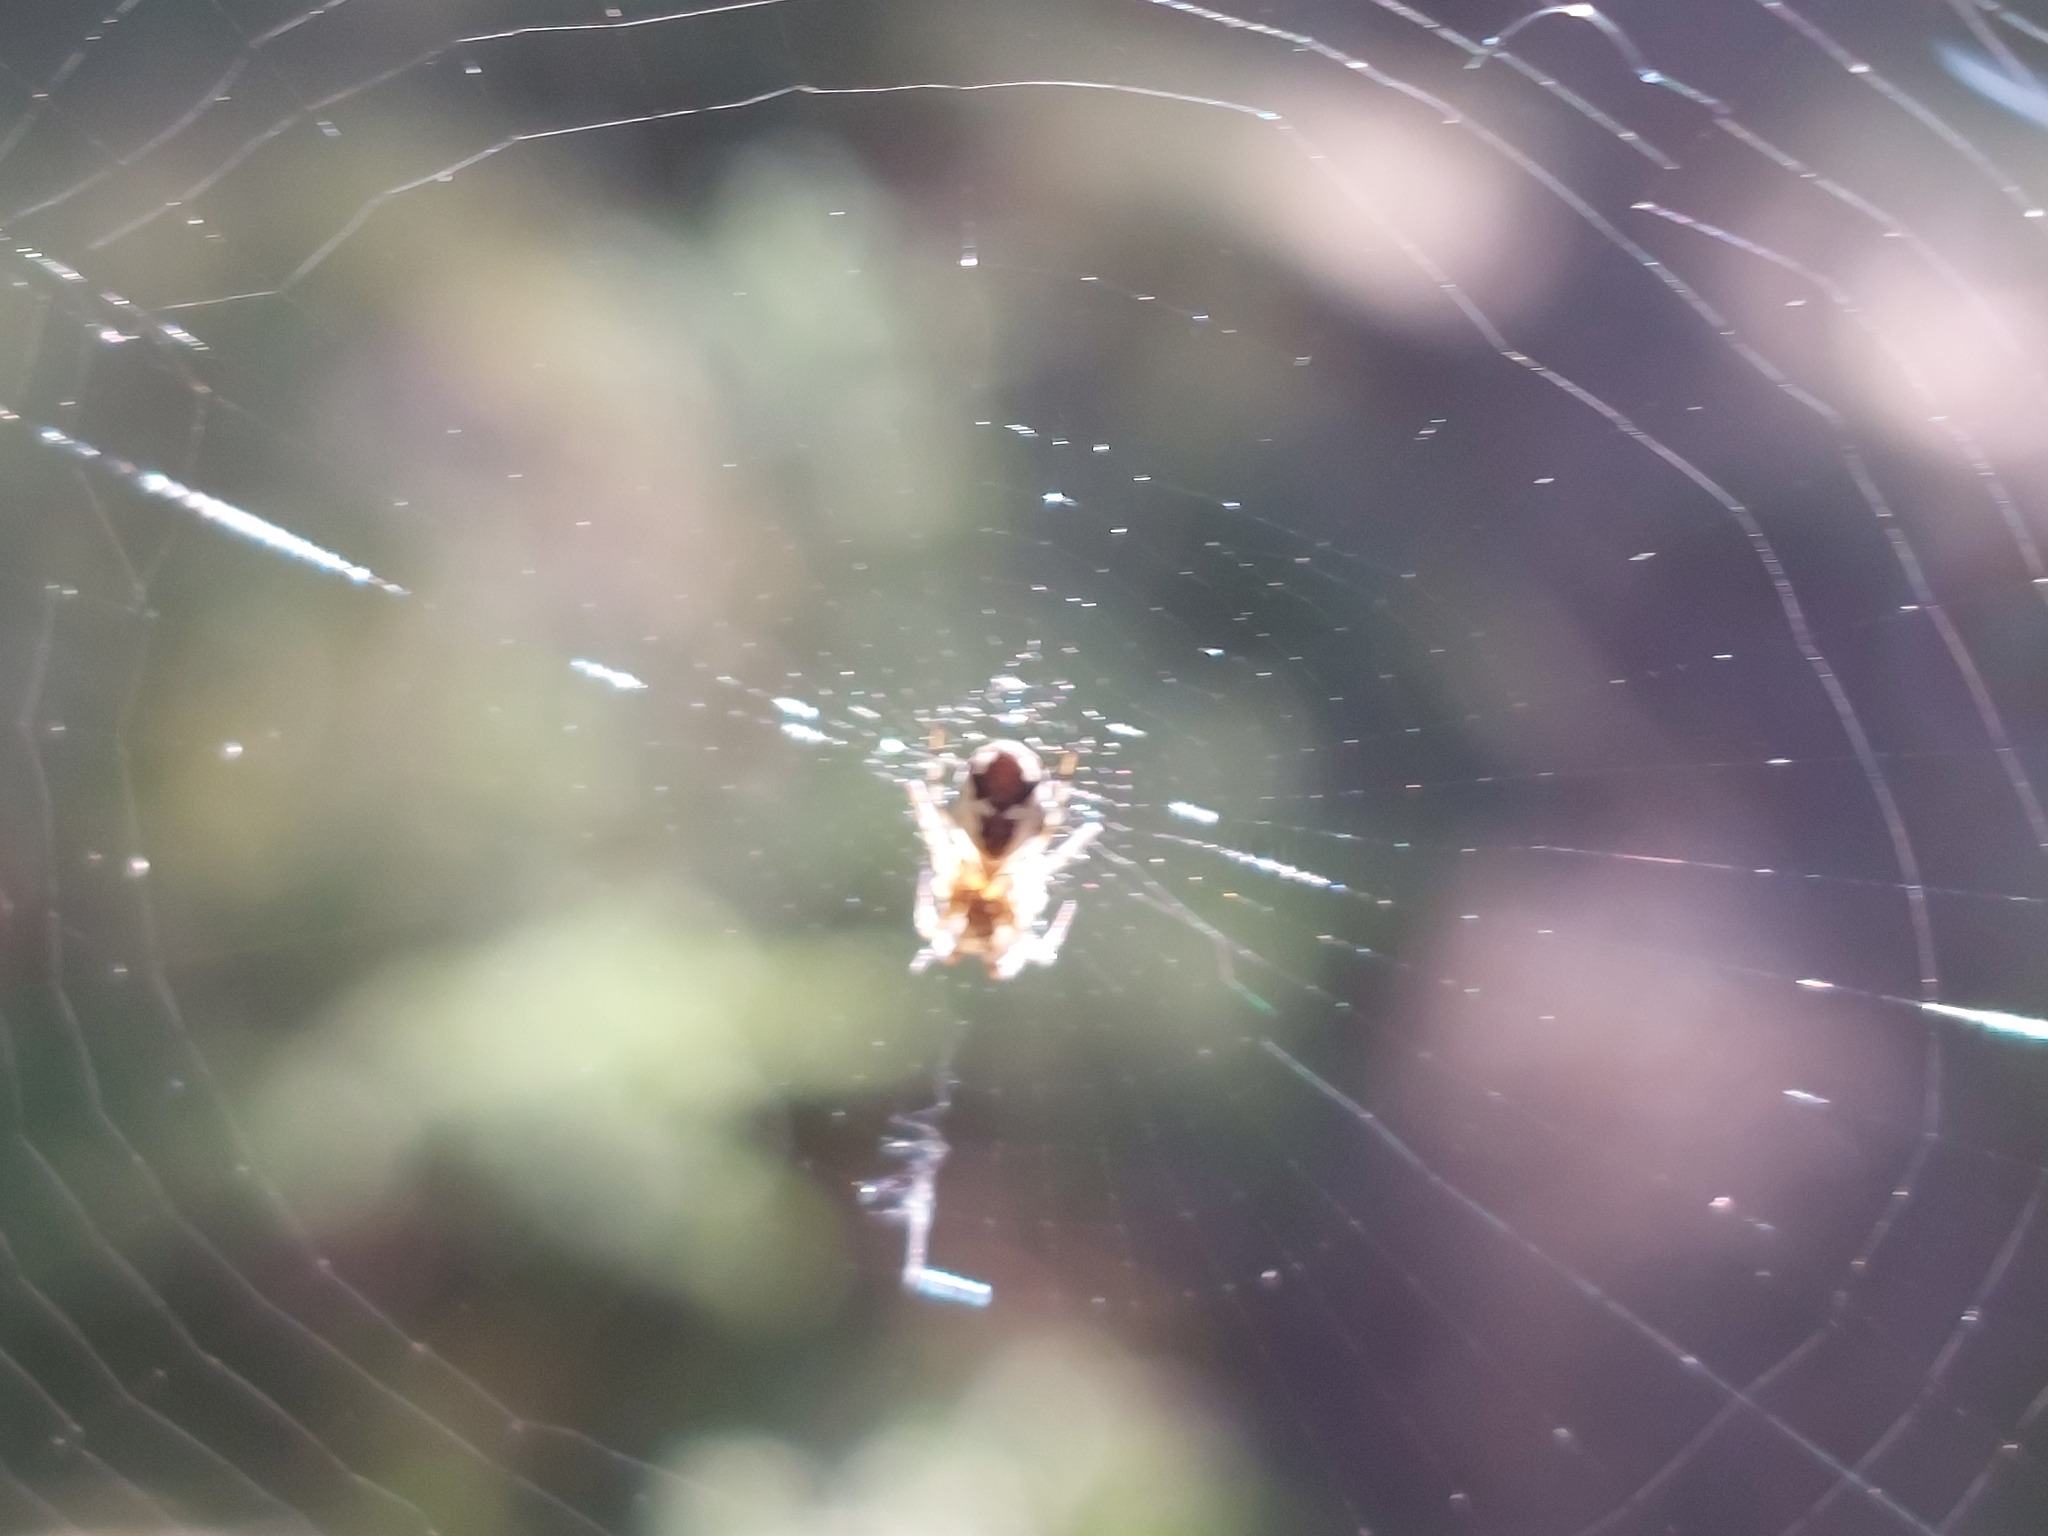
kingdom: Animalia
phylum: Arthropoda
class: Arachnida
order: Araneae
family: Araneidae
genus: Cyclosa
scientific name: Cyclosa conica
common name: Conical trashline orbweaver
